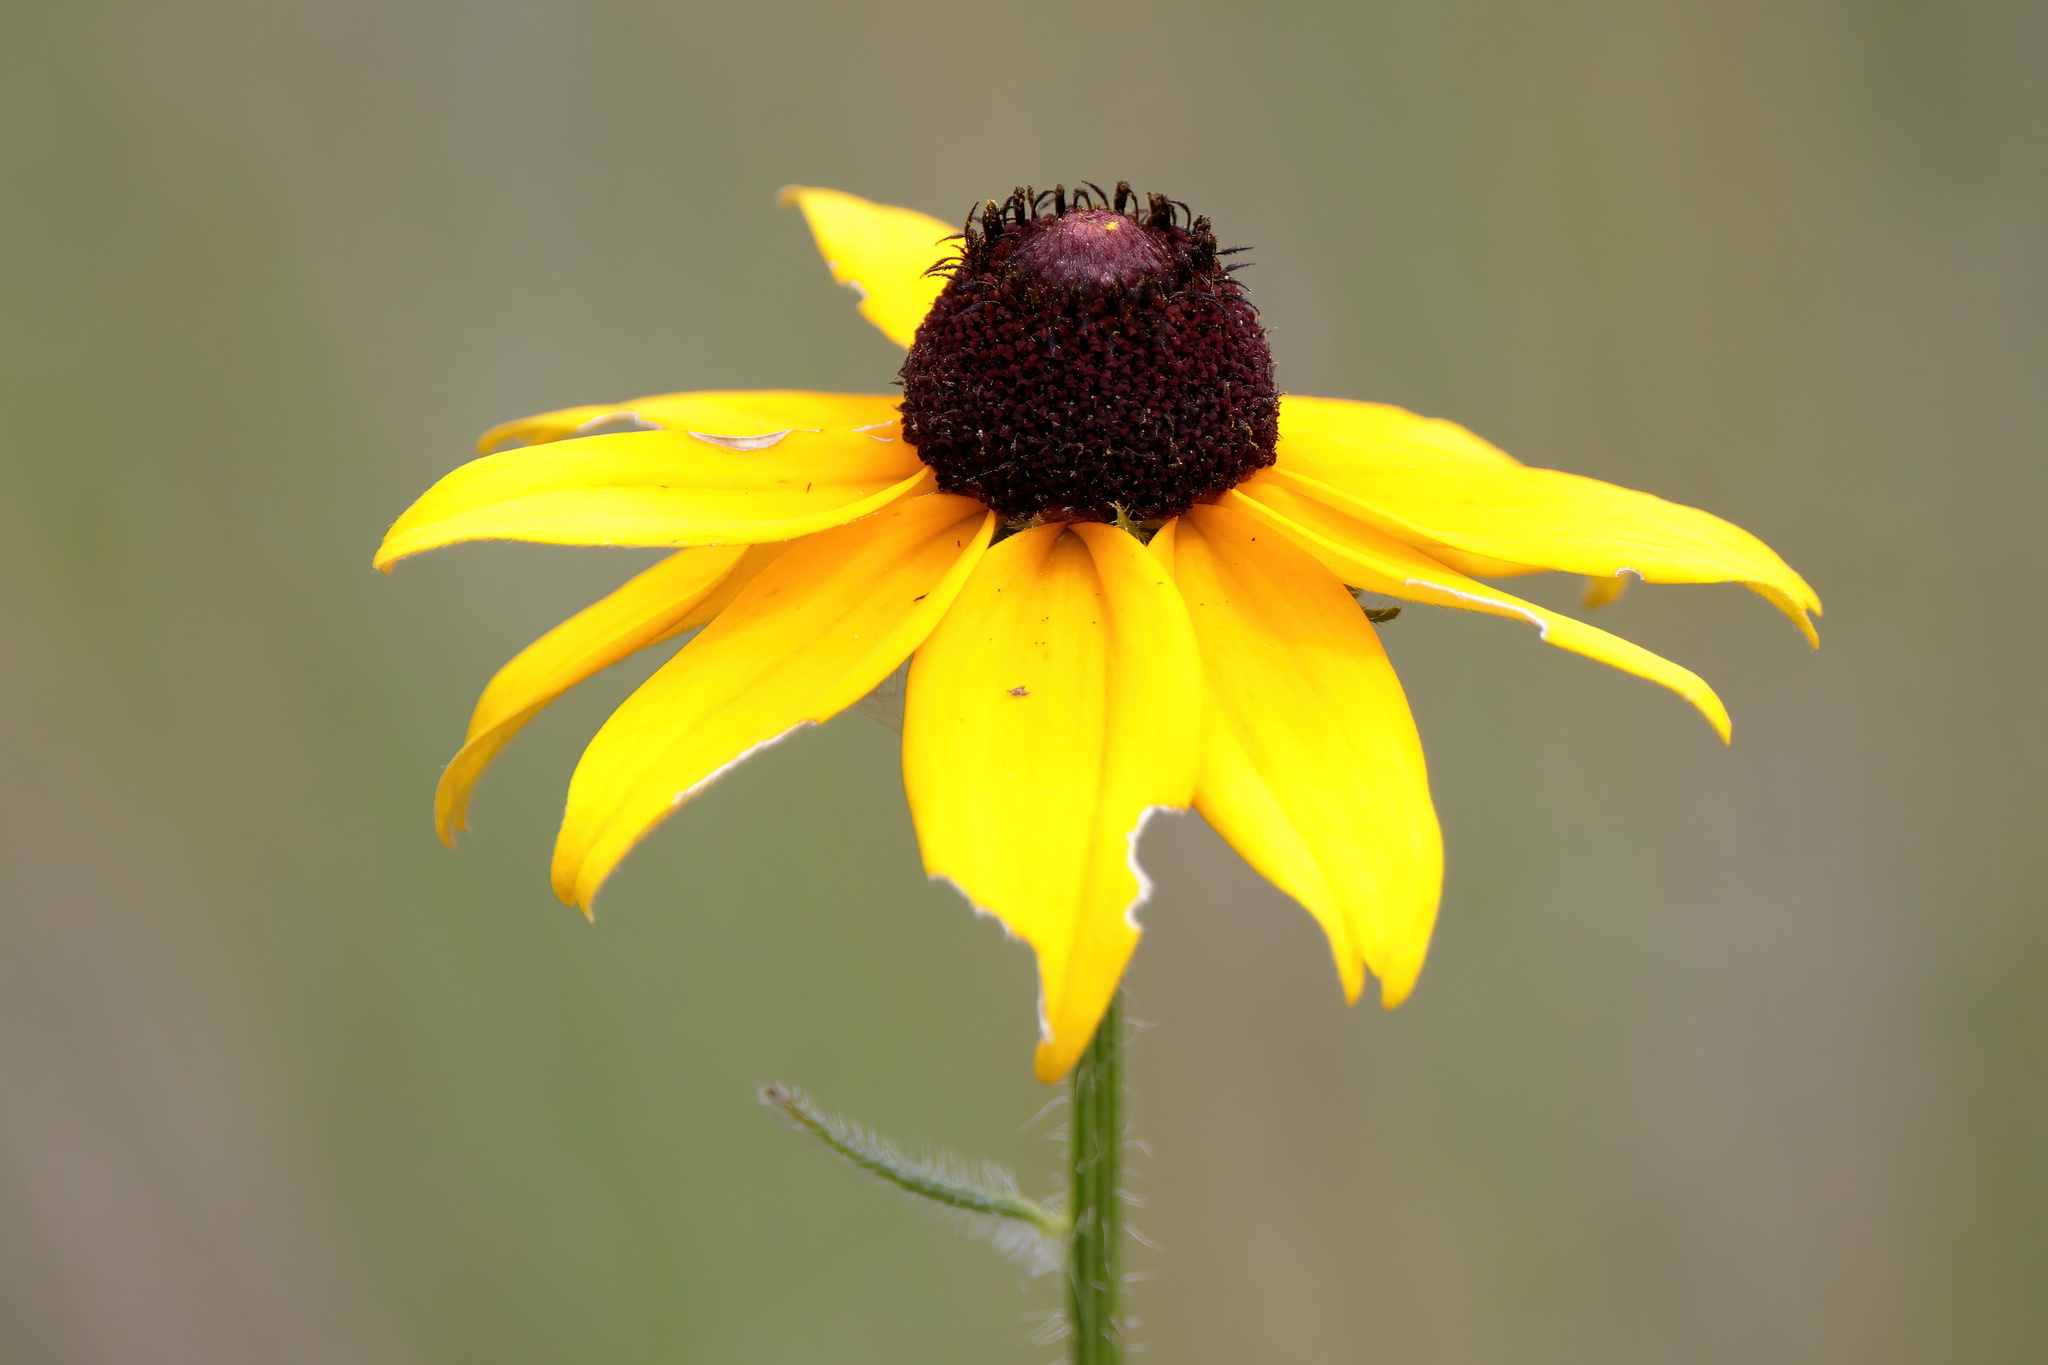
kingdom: Plantae
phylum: Tracheophyta
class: Magnoliopsida
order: Asterales
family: Asteraceae
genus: Rudbeckia
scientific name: Rudbeckia hirta
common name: Black-eyed-susan
